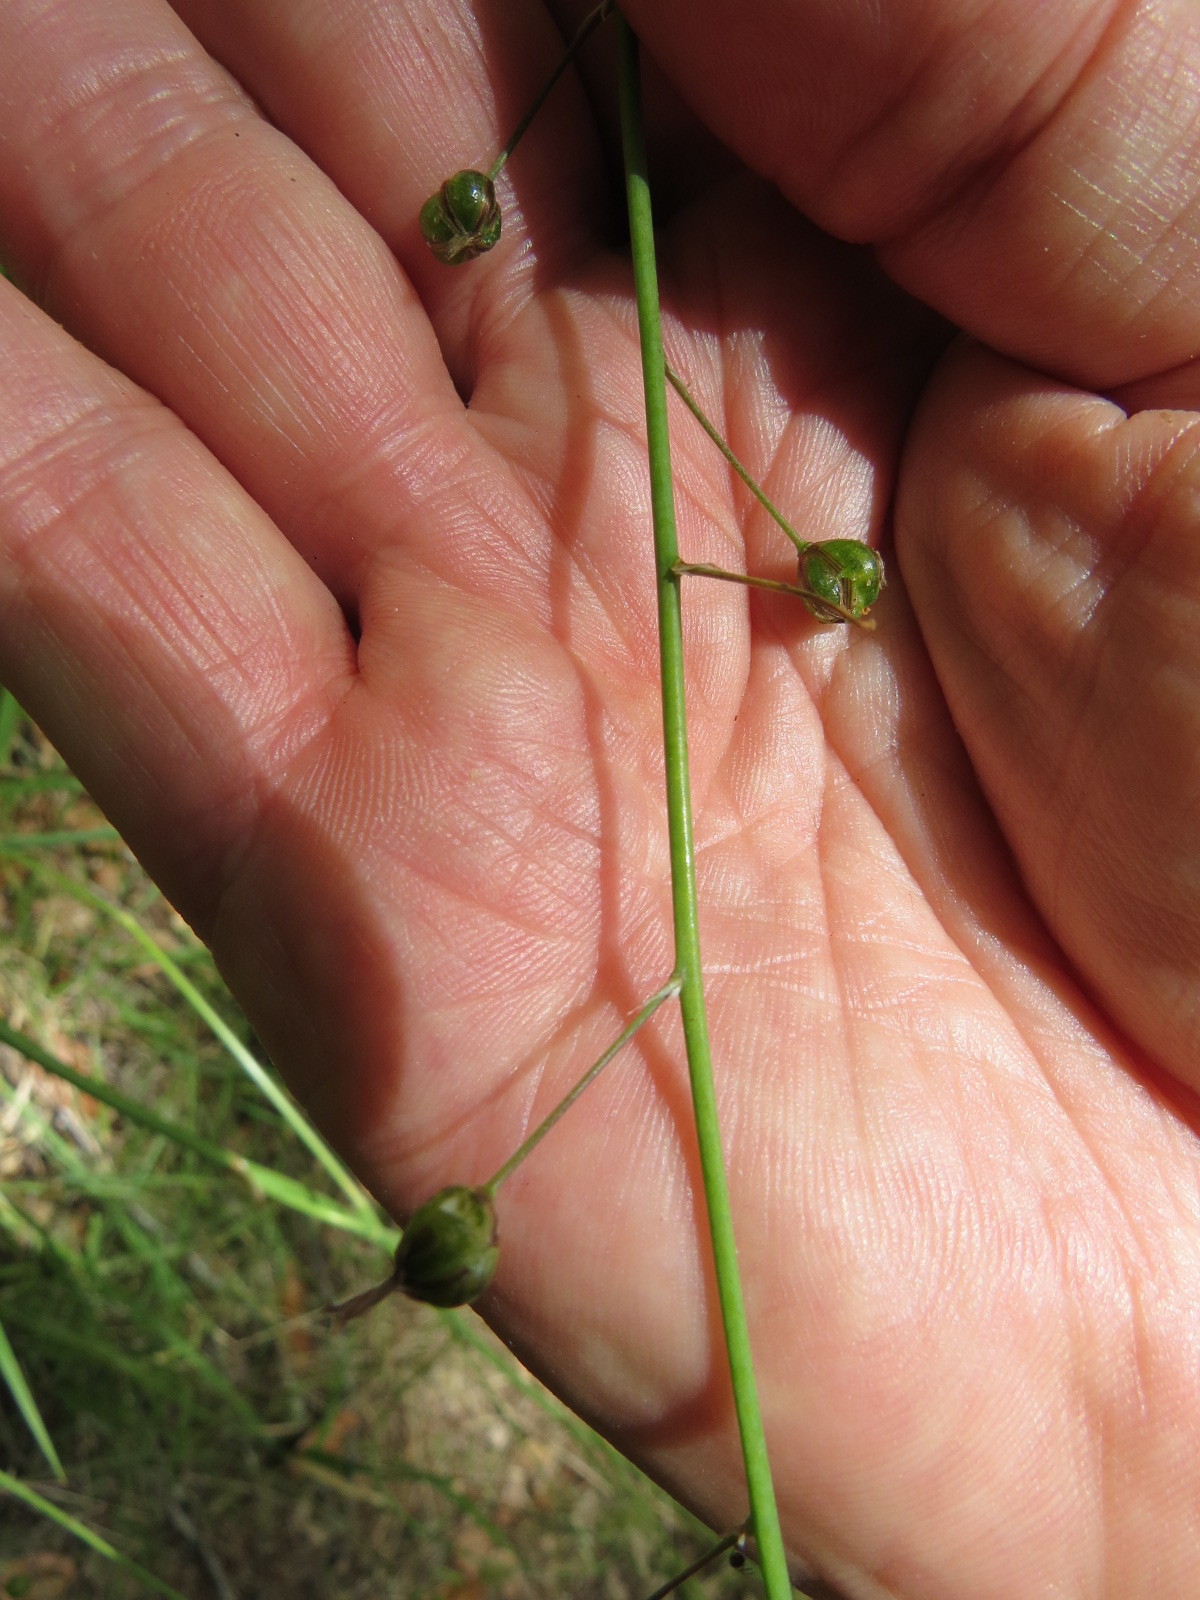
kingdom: Plantae
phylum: Tracheophyta
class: Liliopsida
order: Asparagales
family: Asparagaceae
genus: Chlorogalum
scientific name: Chlorogalum pomeridianum
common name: Amole
